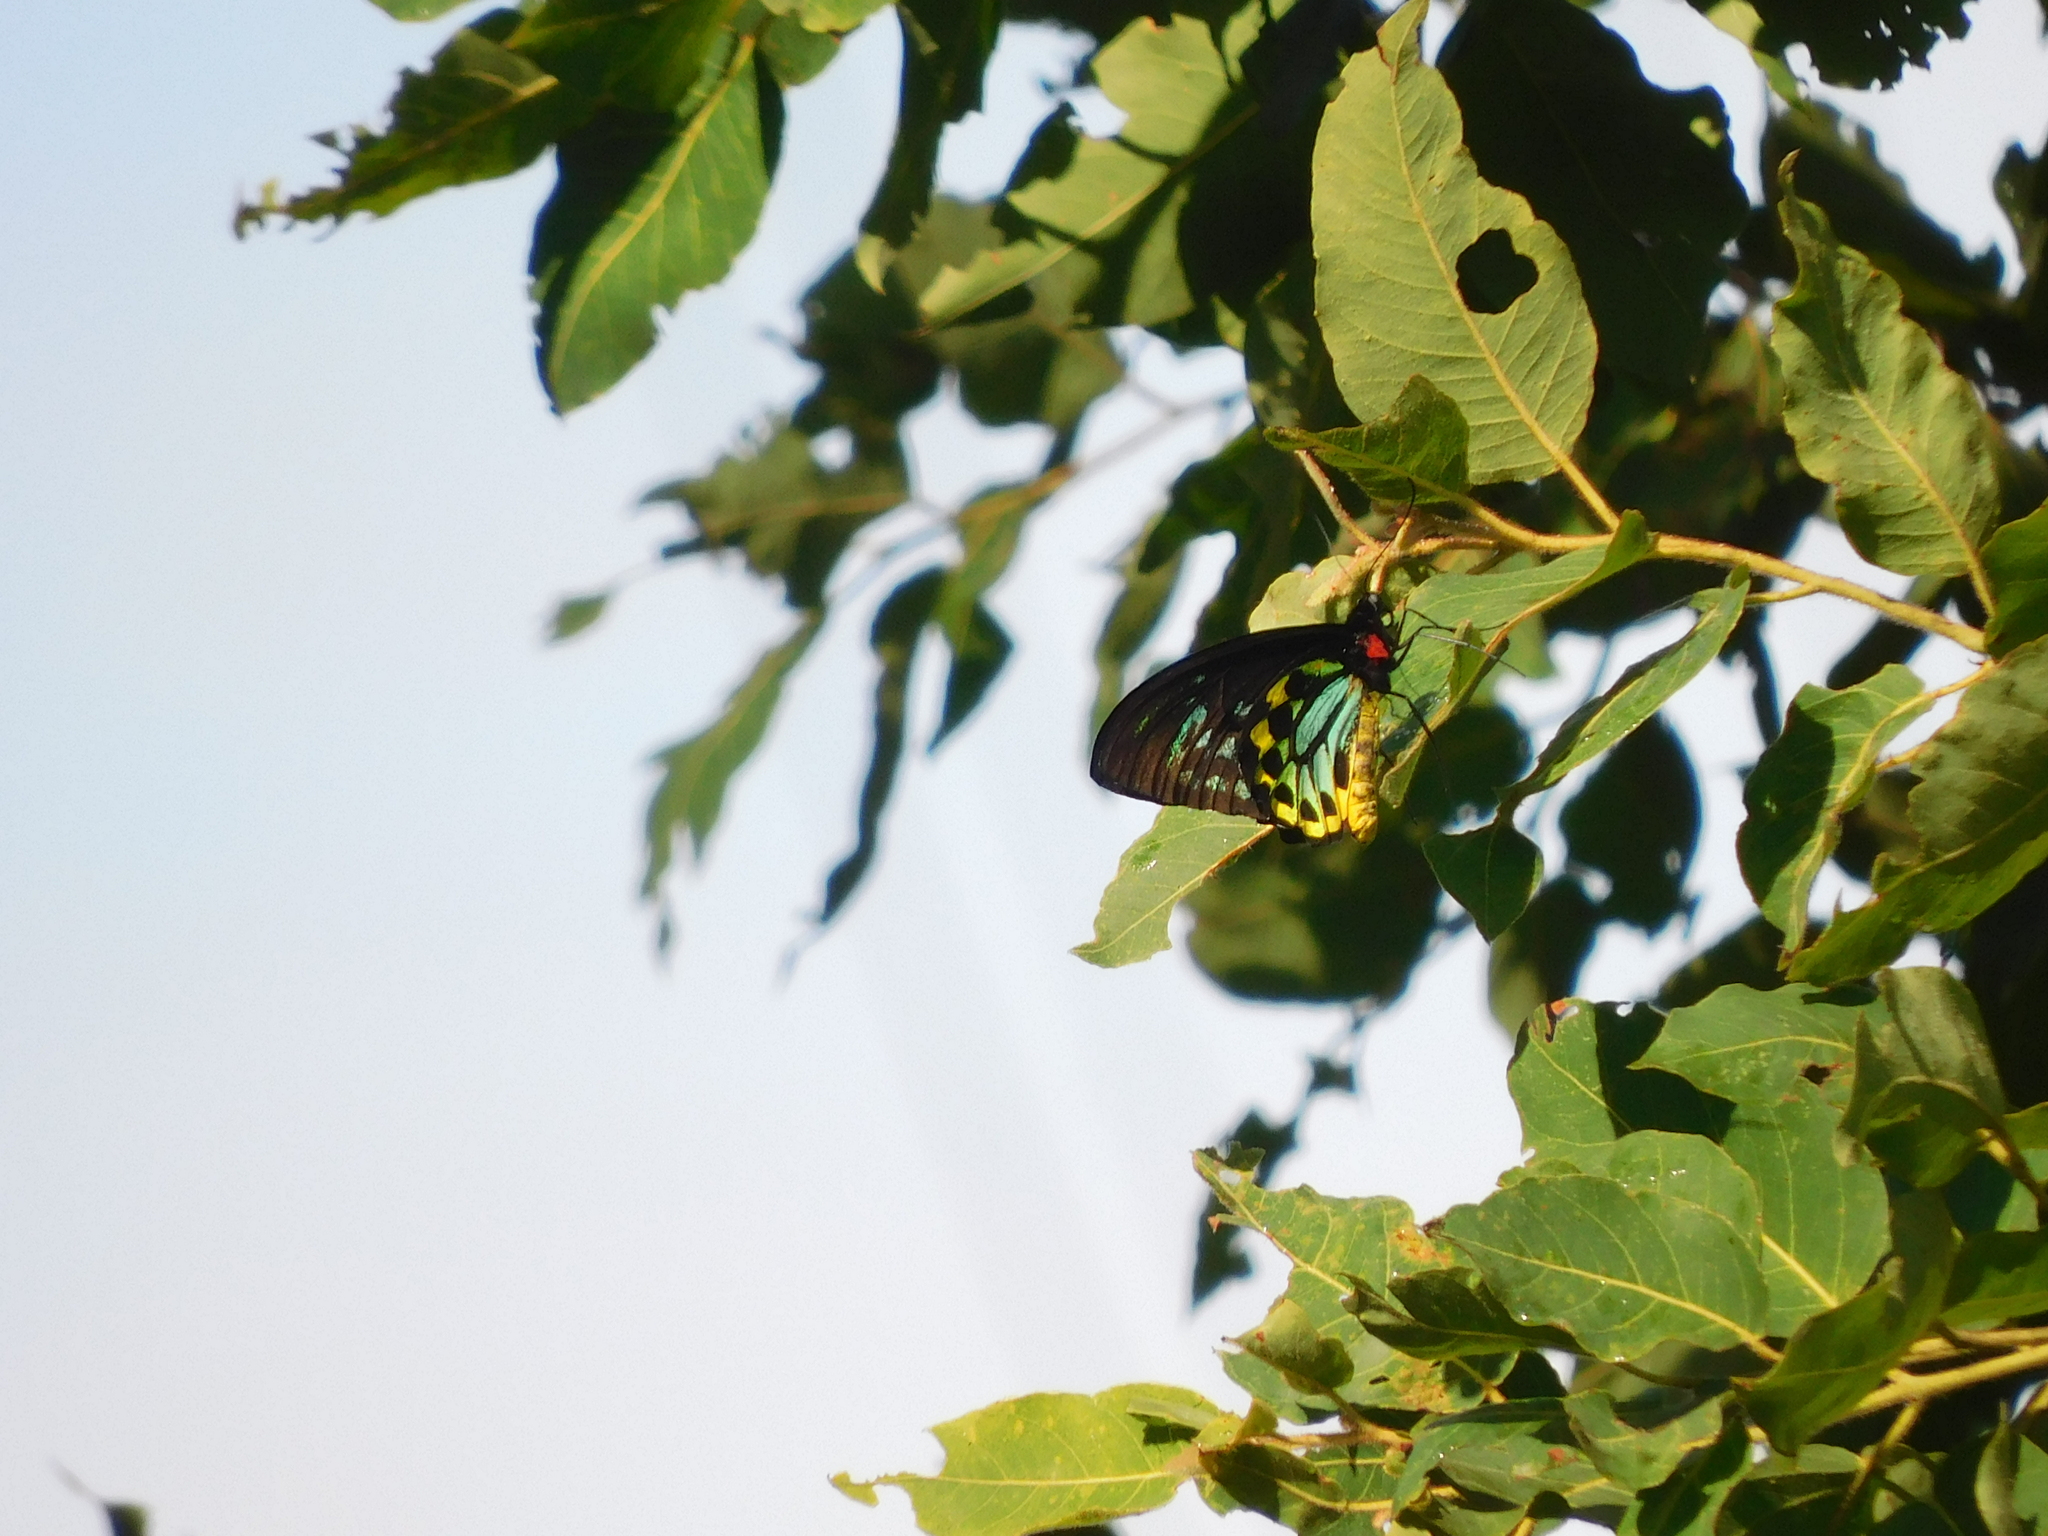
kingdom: Animalia
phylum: Arthropoda
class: Insecta
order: Lepidoptera
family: Papilionidae
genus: Ornithoptera
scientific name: Ornithoptera euphorion
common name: Cairns birdwing
